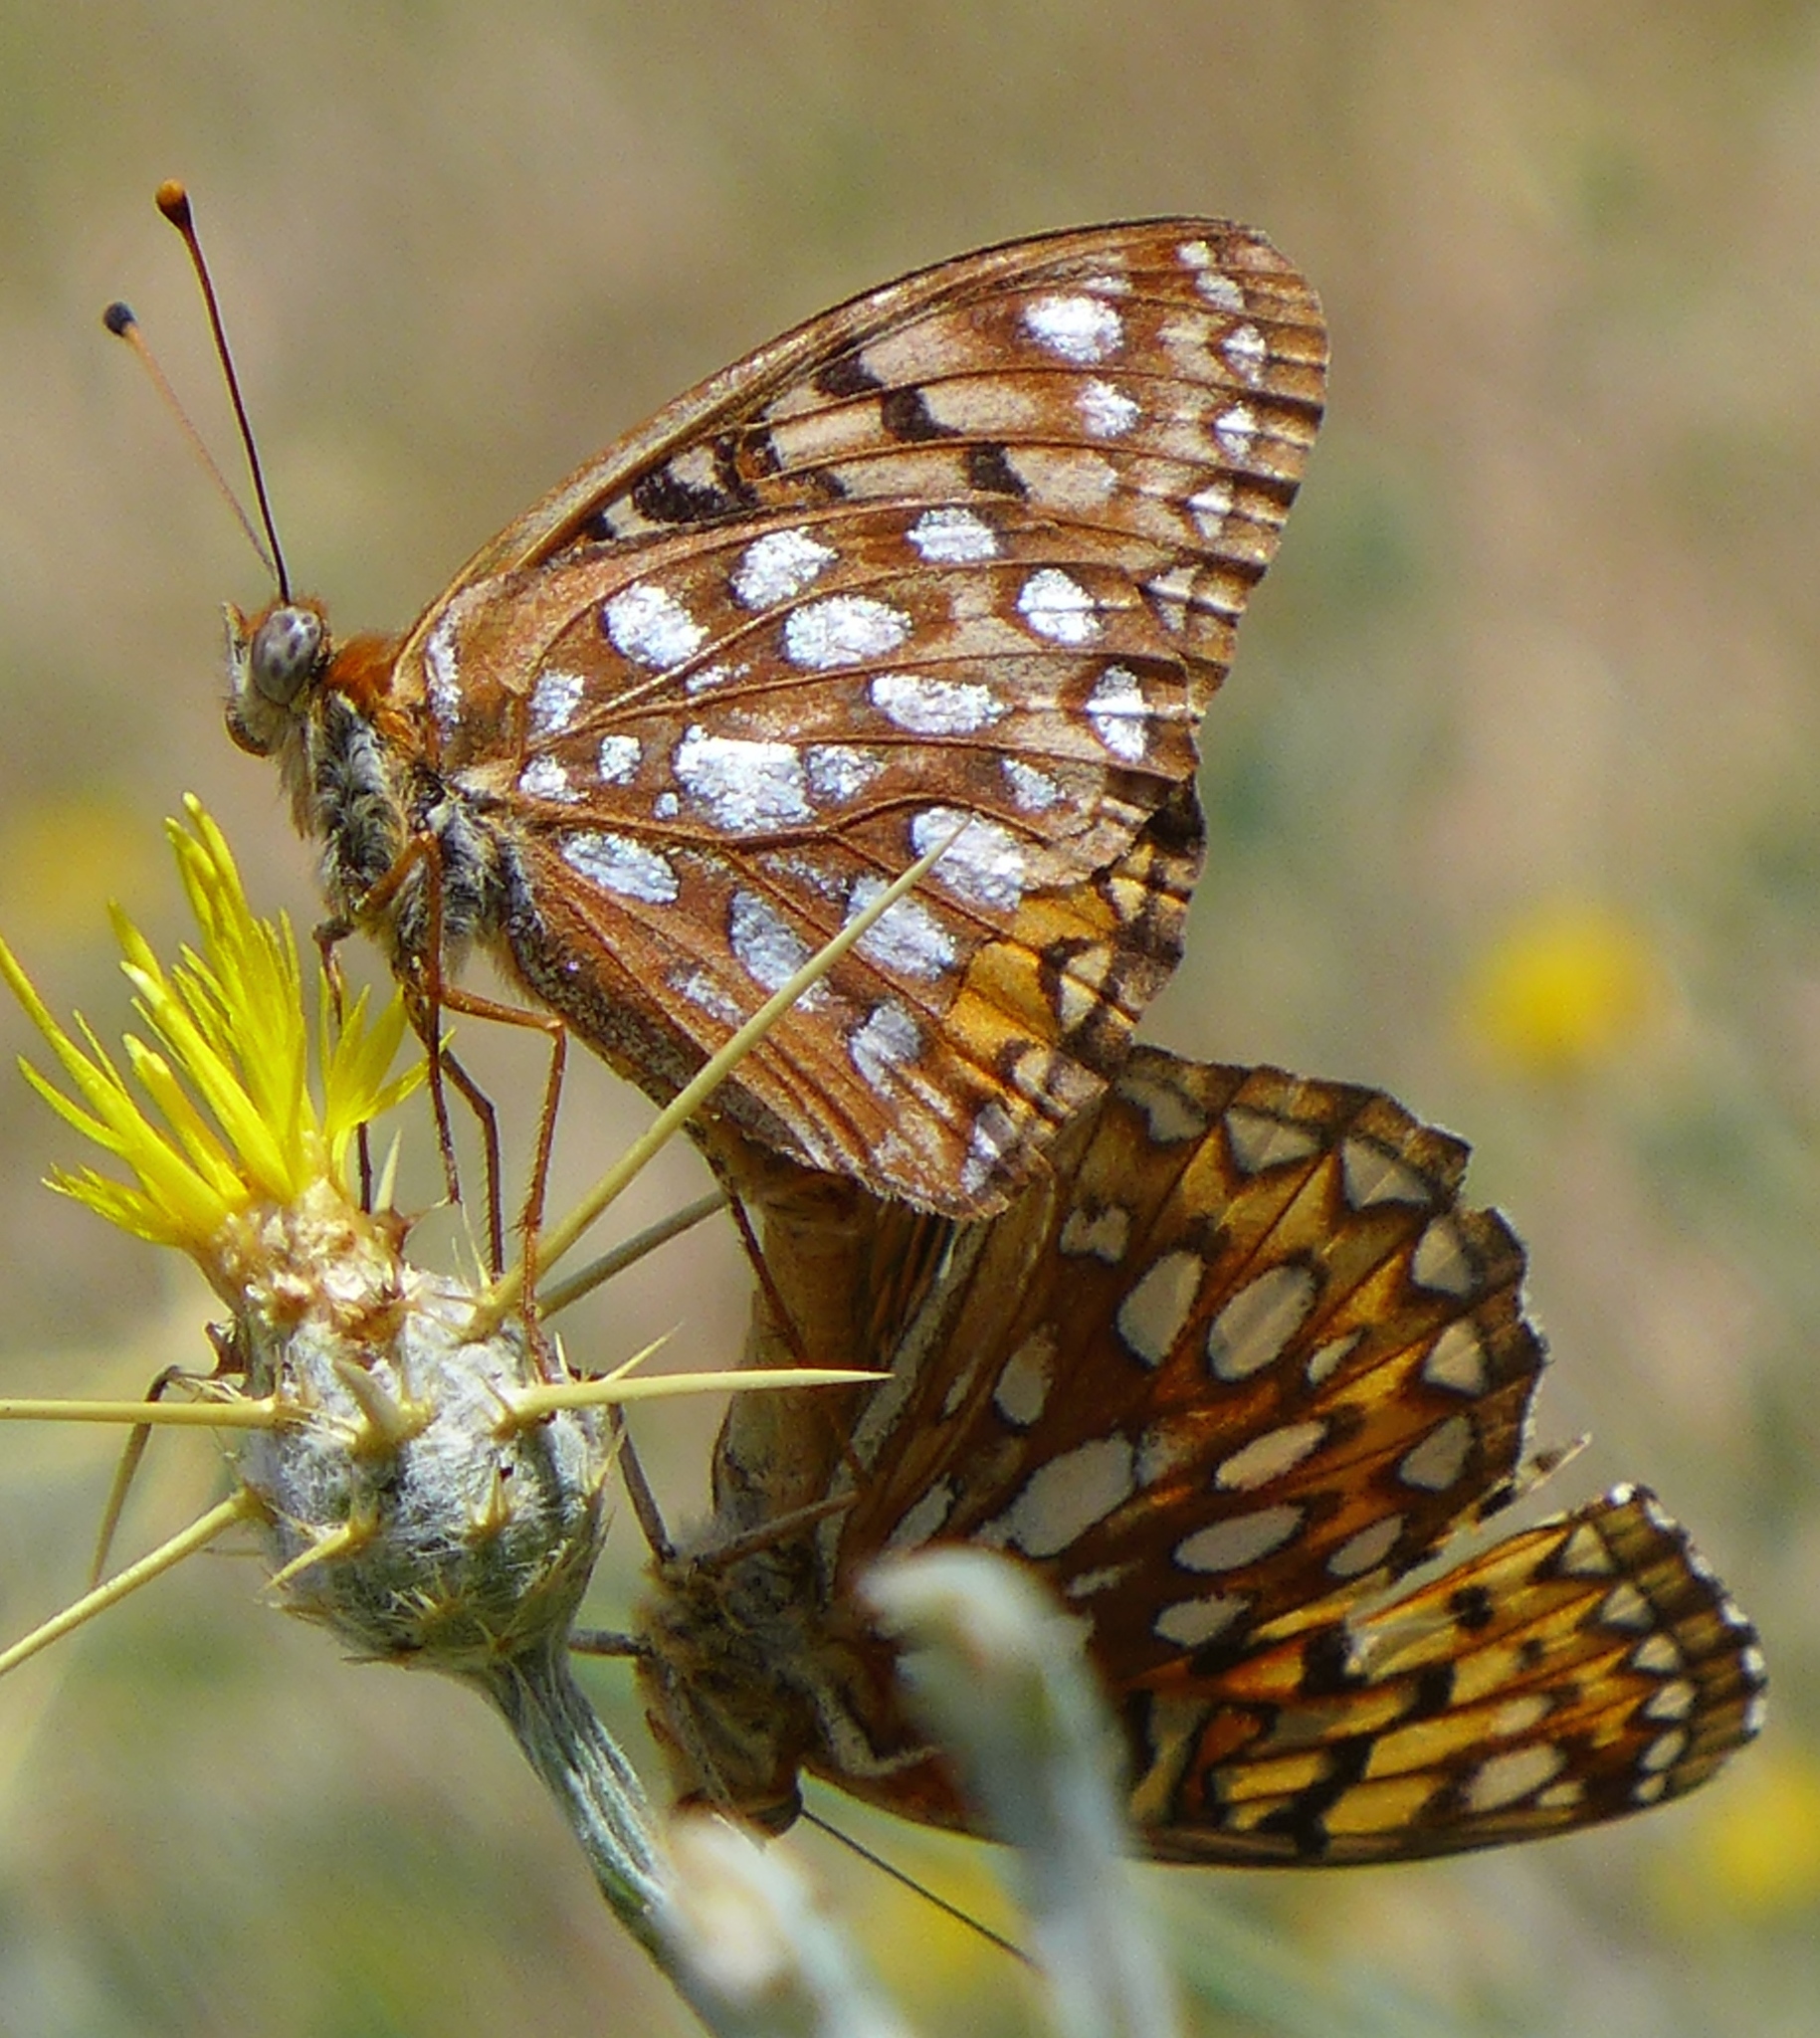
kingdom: Animalia
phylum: Arthropoda
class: Insecta
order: Lepidoptera
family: Nymphalidae
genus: Speyeria
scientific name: Speyeria callippe
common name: Callippe fritillary
